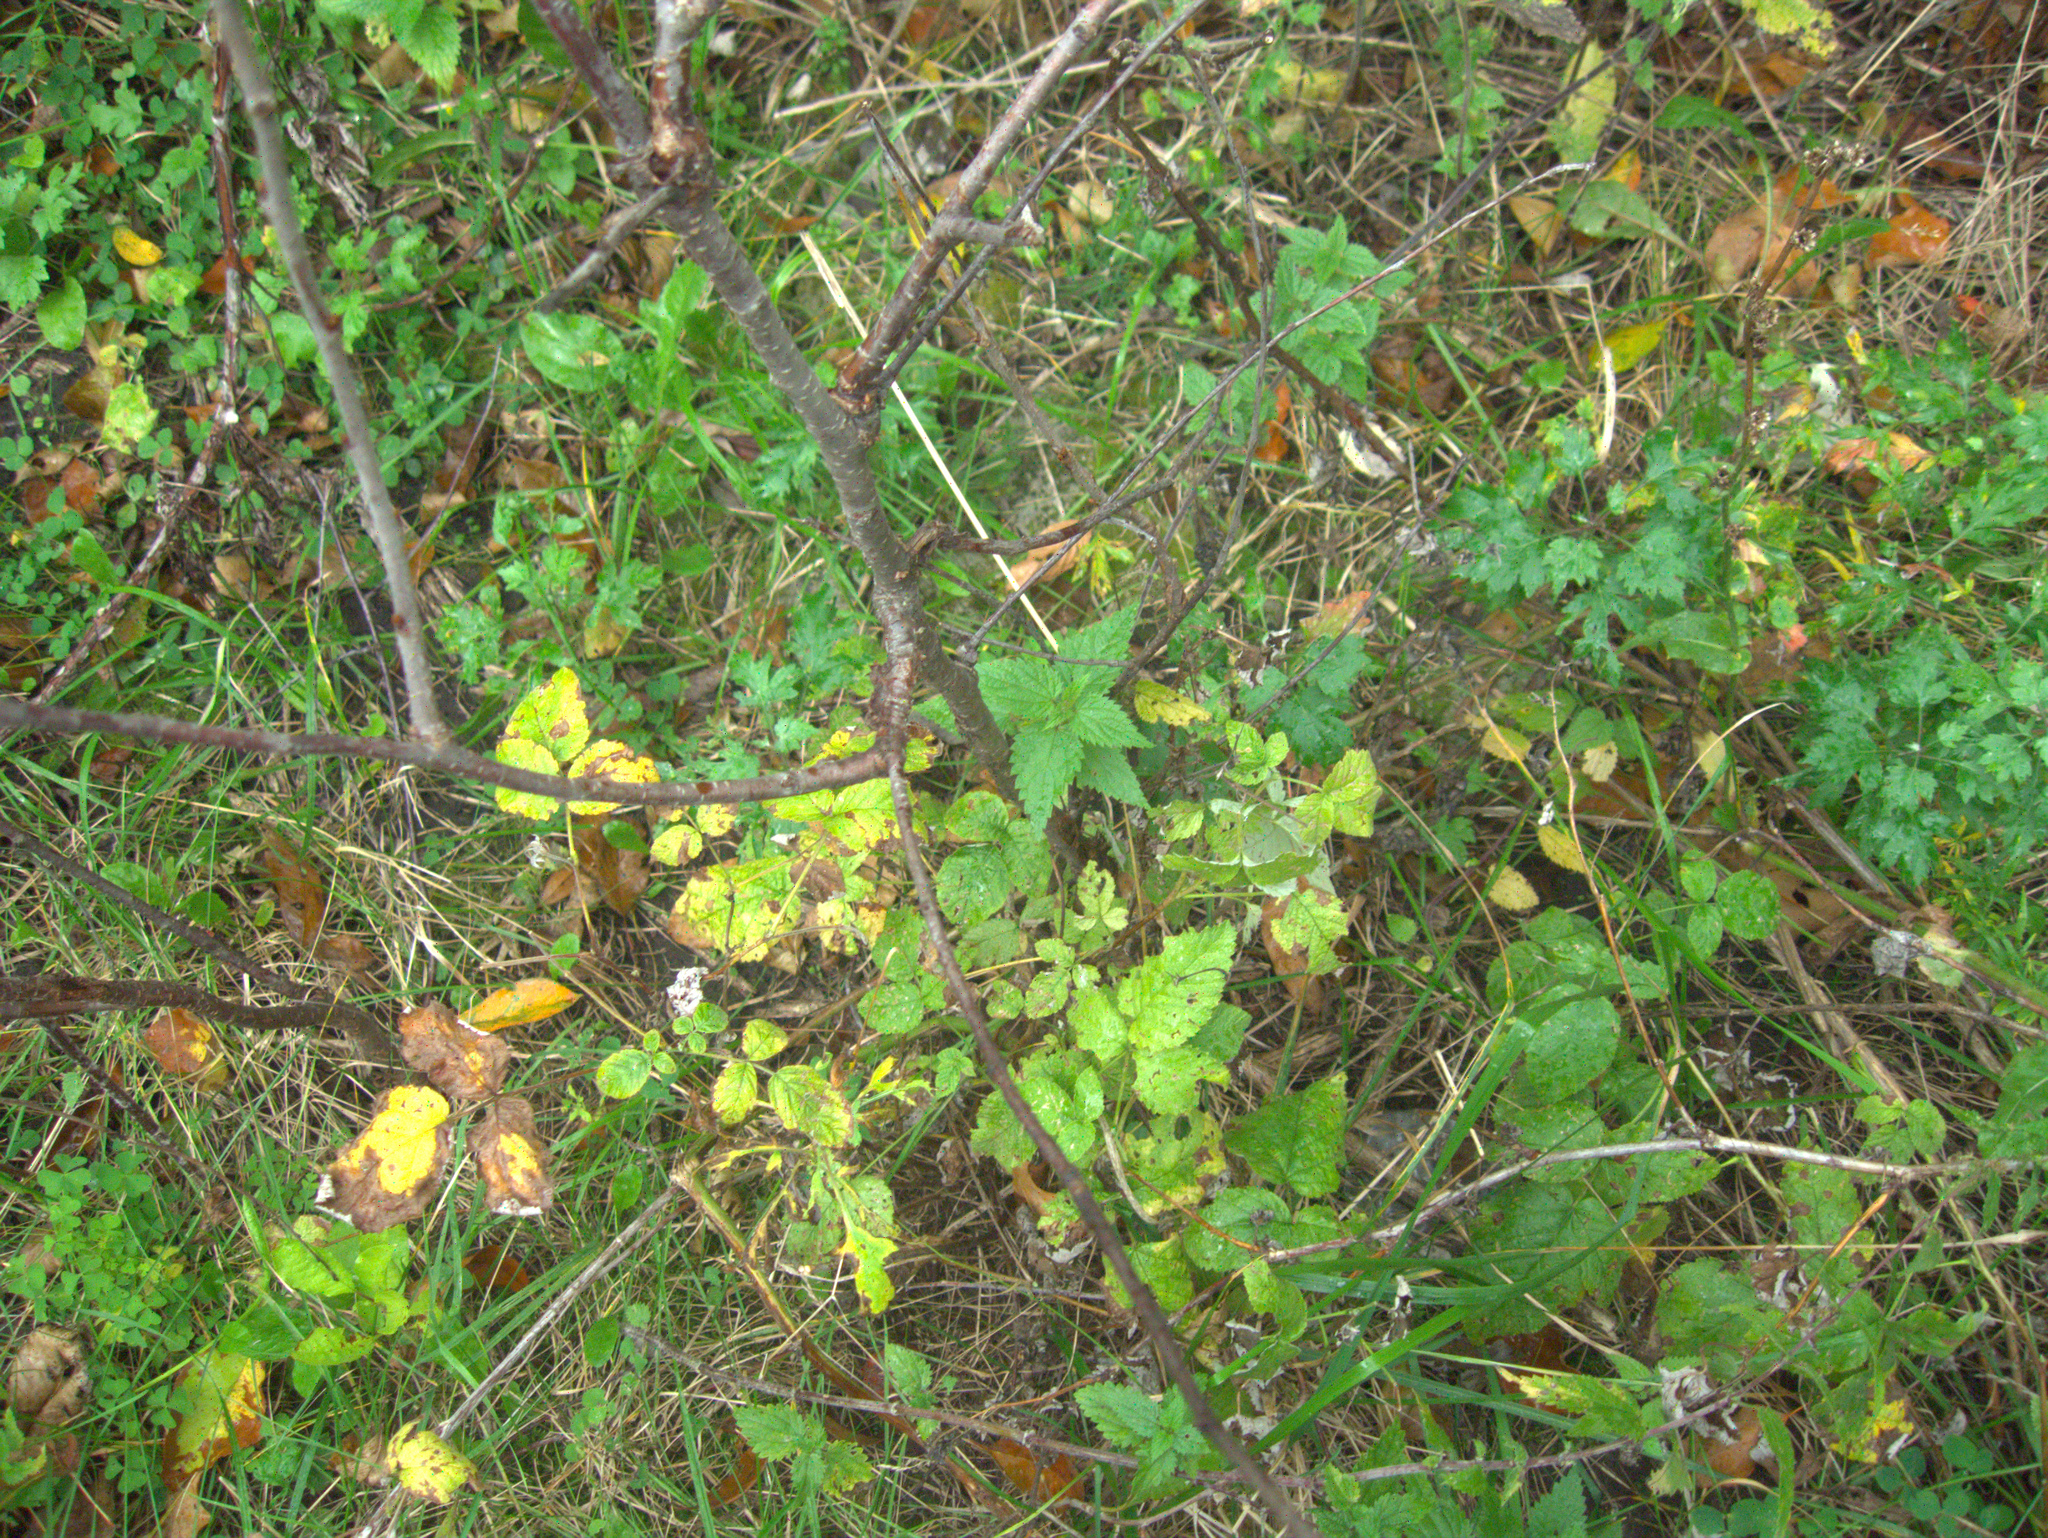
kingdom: Plantae
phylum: Tracheophyta
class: Magnoliopsida
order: Rosales
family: Urticaceae
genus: Urtica
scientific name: Urtica dioica
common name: Common nettle
